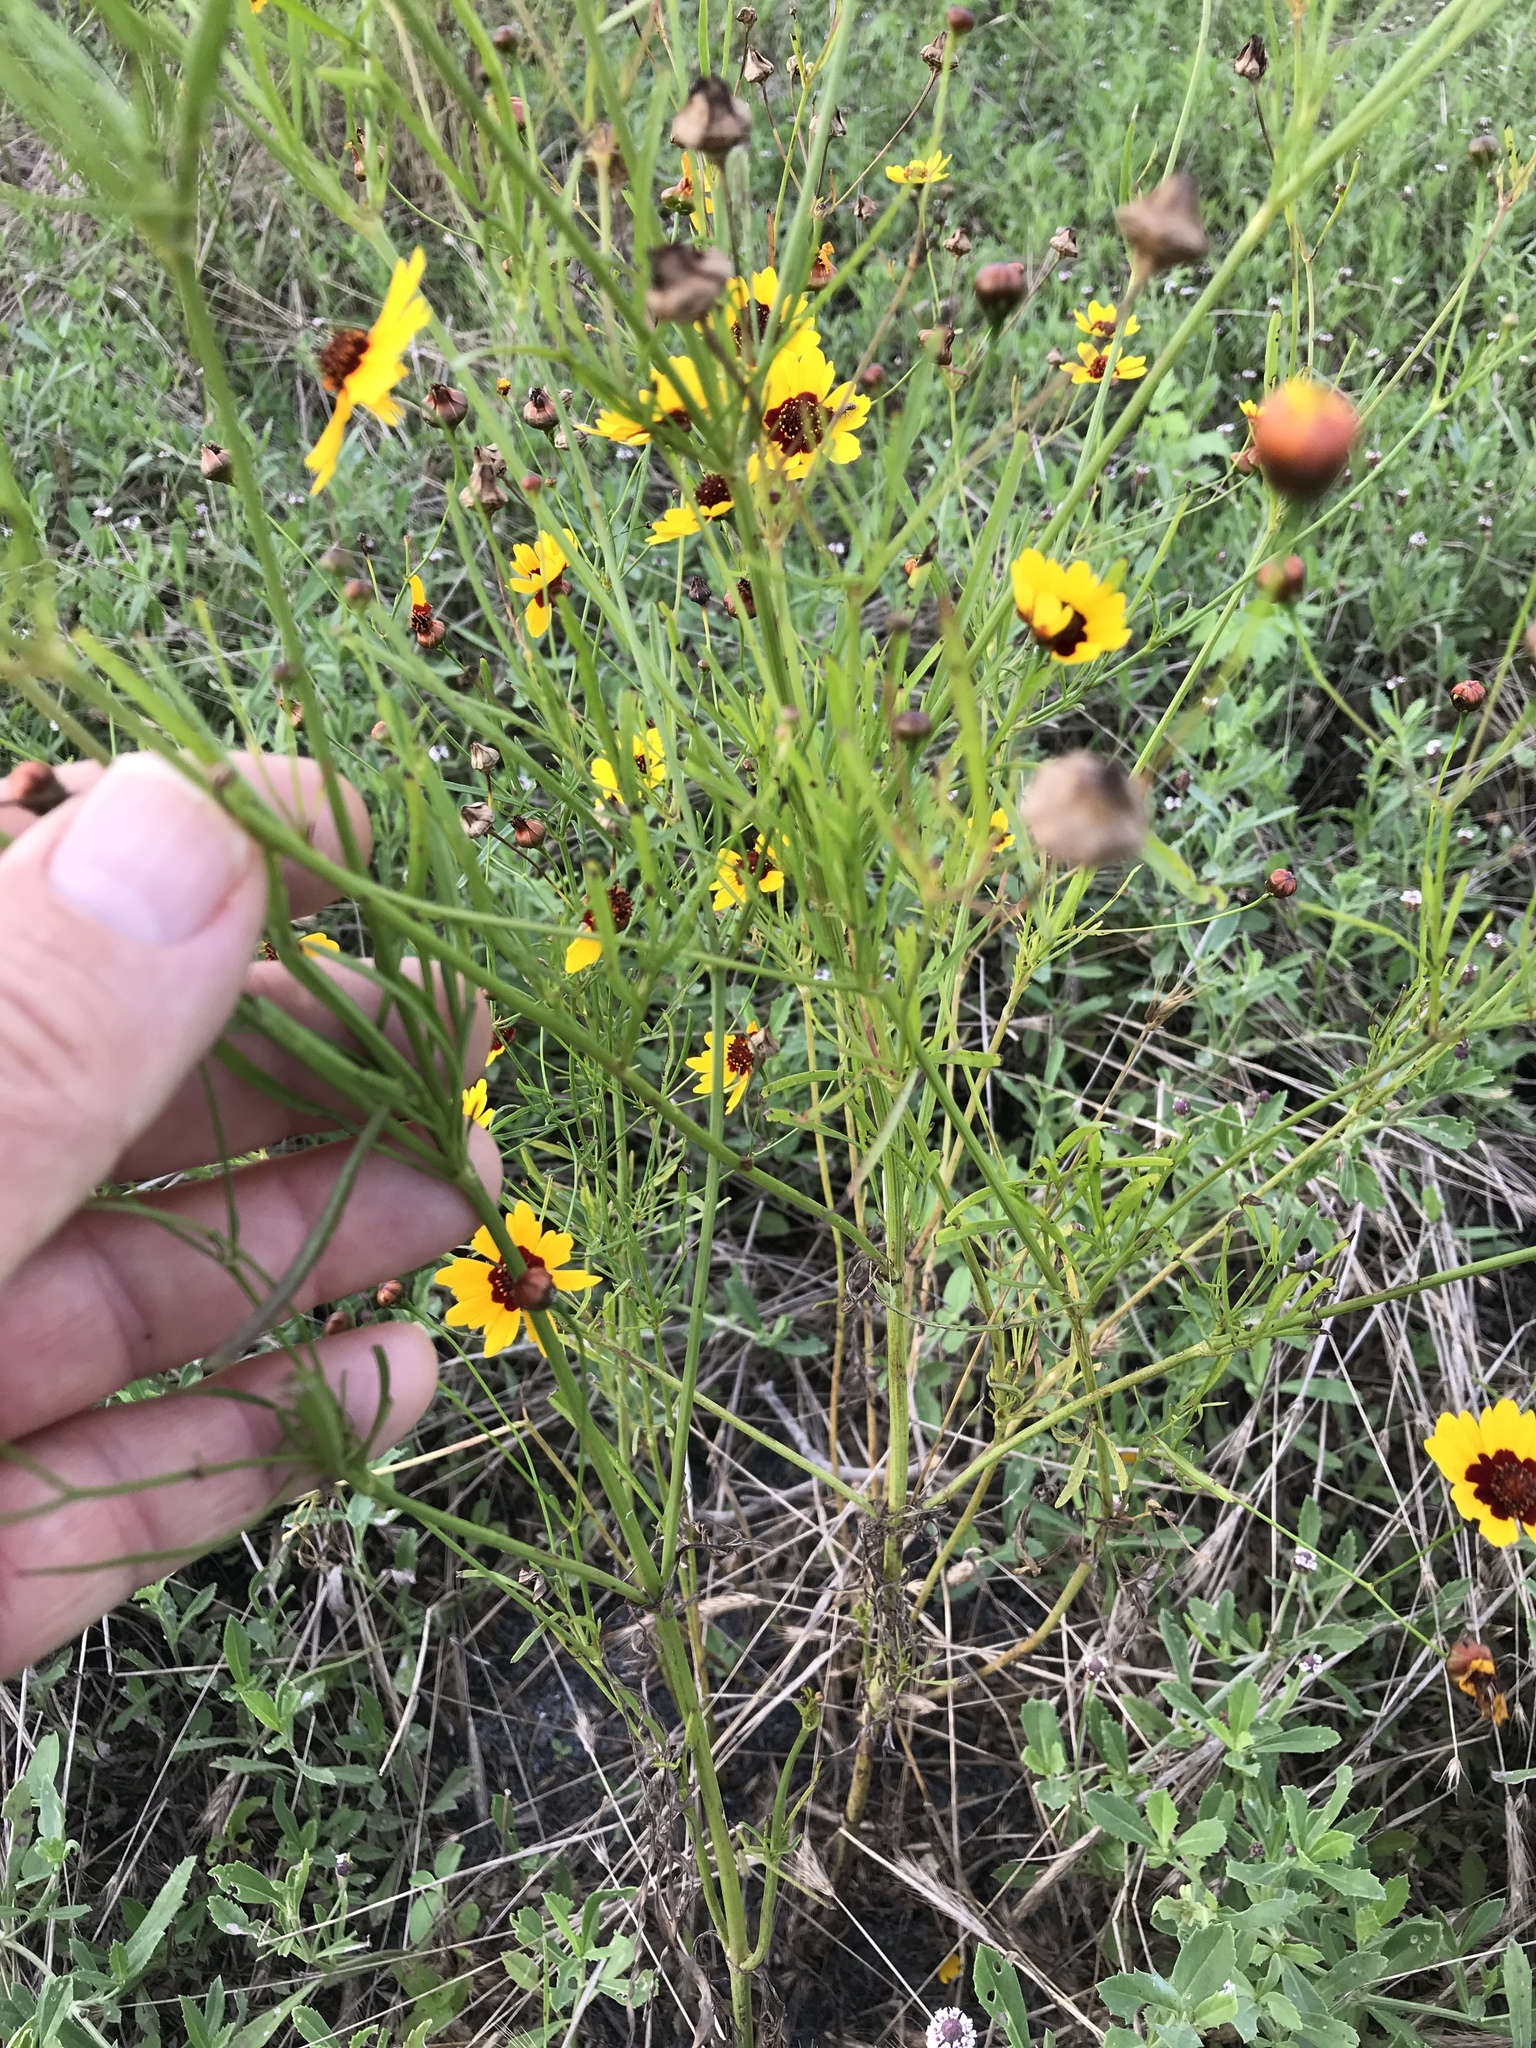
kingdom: Plantae
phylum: Tracheophyta
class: Magnoliopsida
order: Asterales
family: Asteraceae
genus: Coreopsis
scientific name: Coreopsis tinctoria
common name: Garden tickseed
